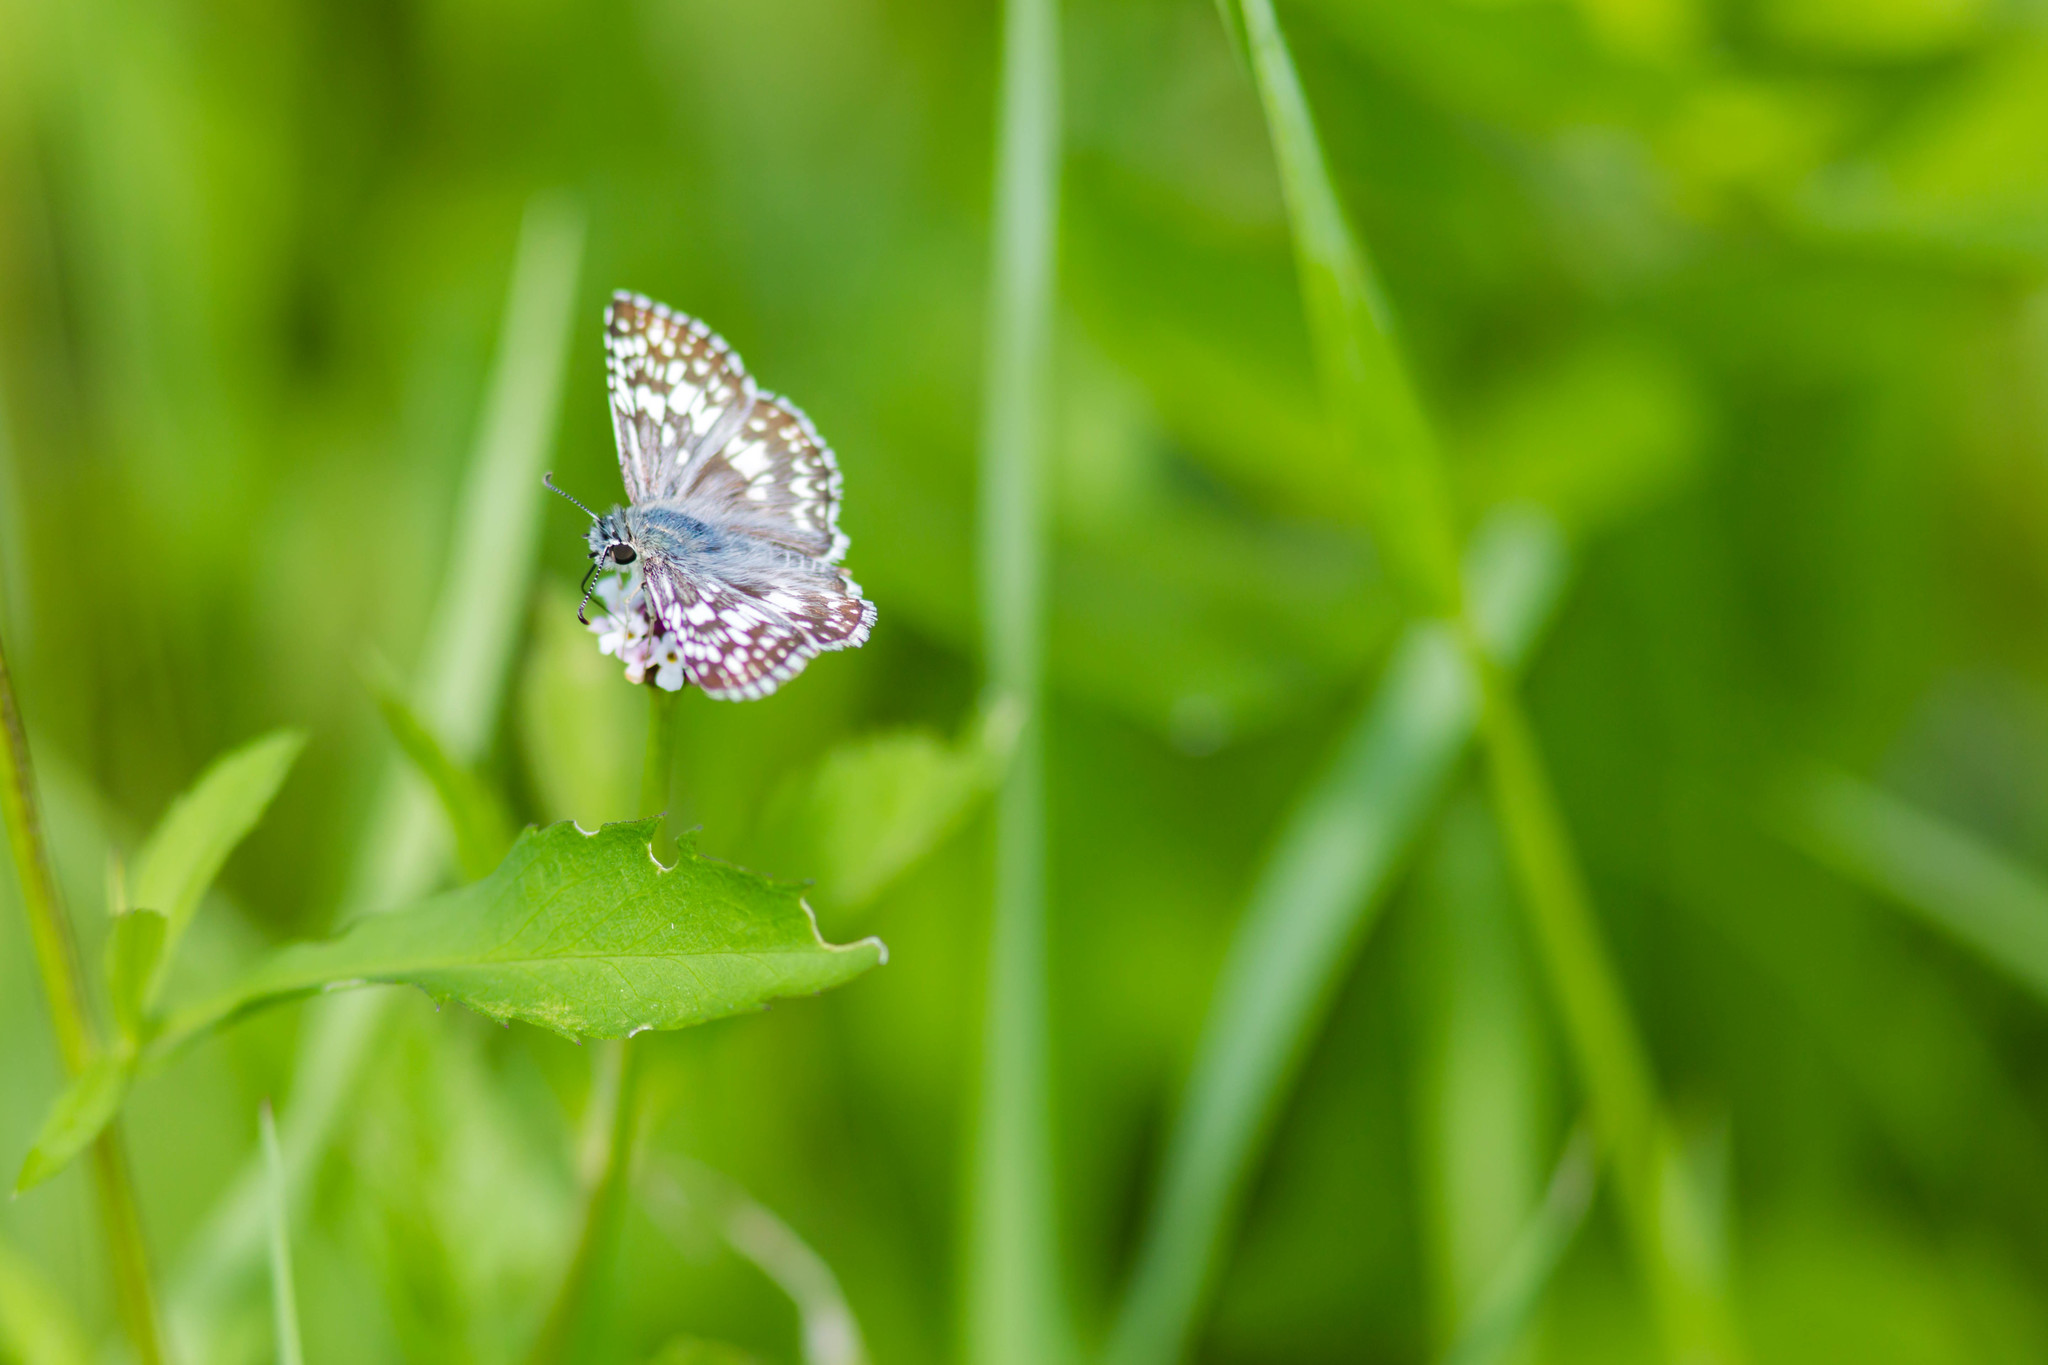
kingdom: Animalia
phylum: Arthropoda
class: Insecta
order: Lepidoptera
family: Hesperiidae
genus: Burnsius
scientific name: Burnsius communis
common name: Common checkered-skipper
